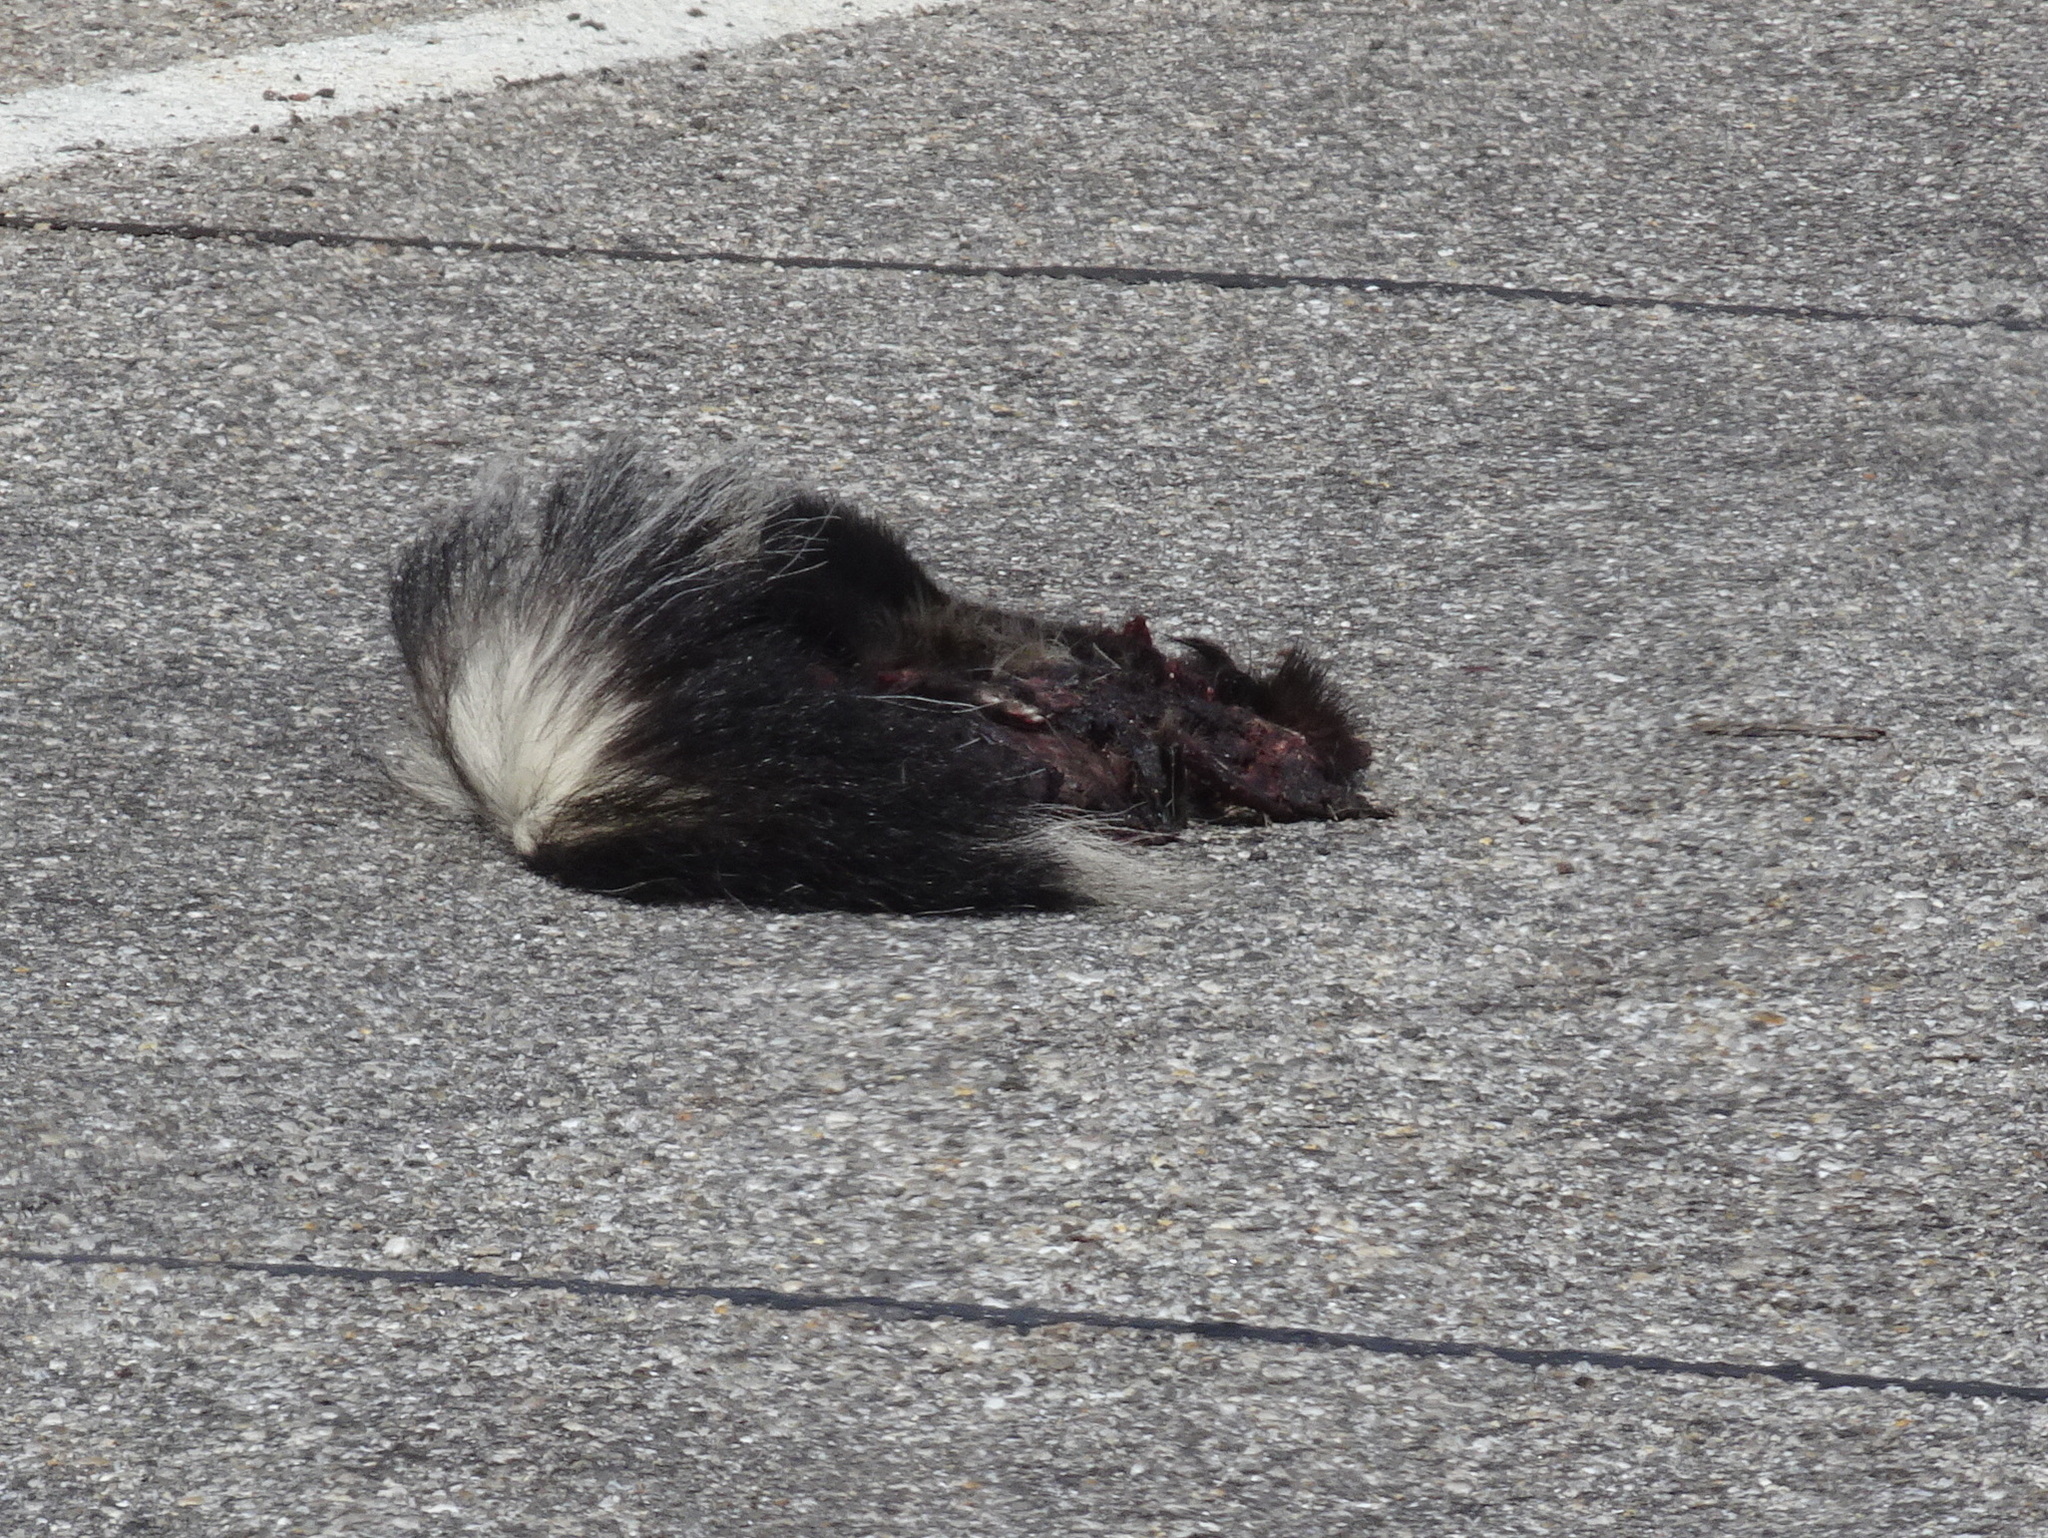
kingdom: Animalia
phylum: Chordata
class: Mammalia
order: Carnivora
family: Mephitidae
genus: Mephitis
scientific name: Mephitis mephitis
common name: Striped skunk
